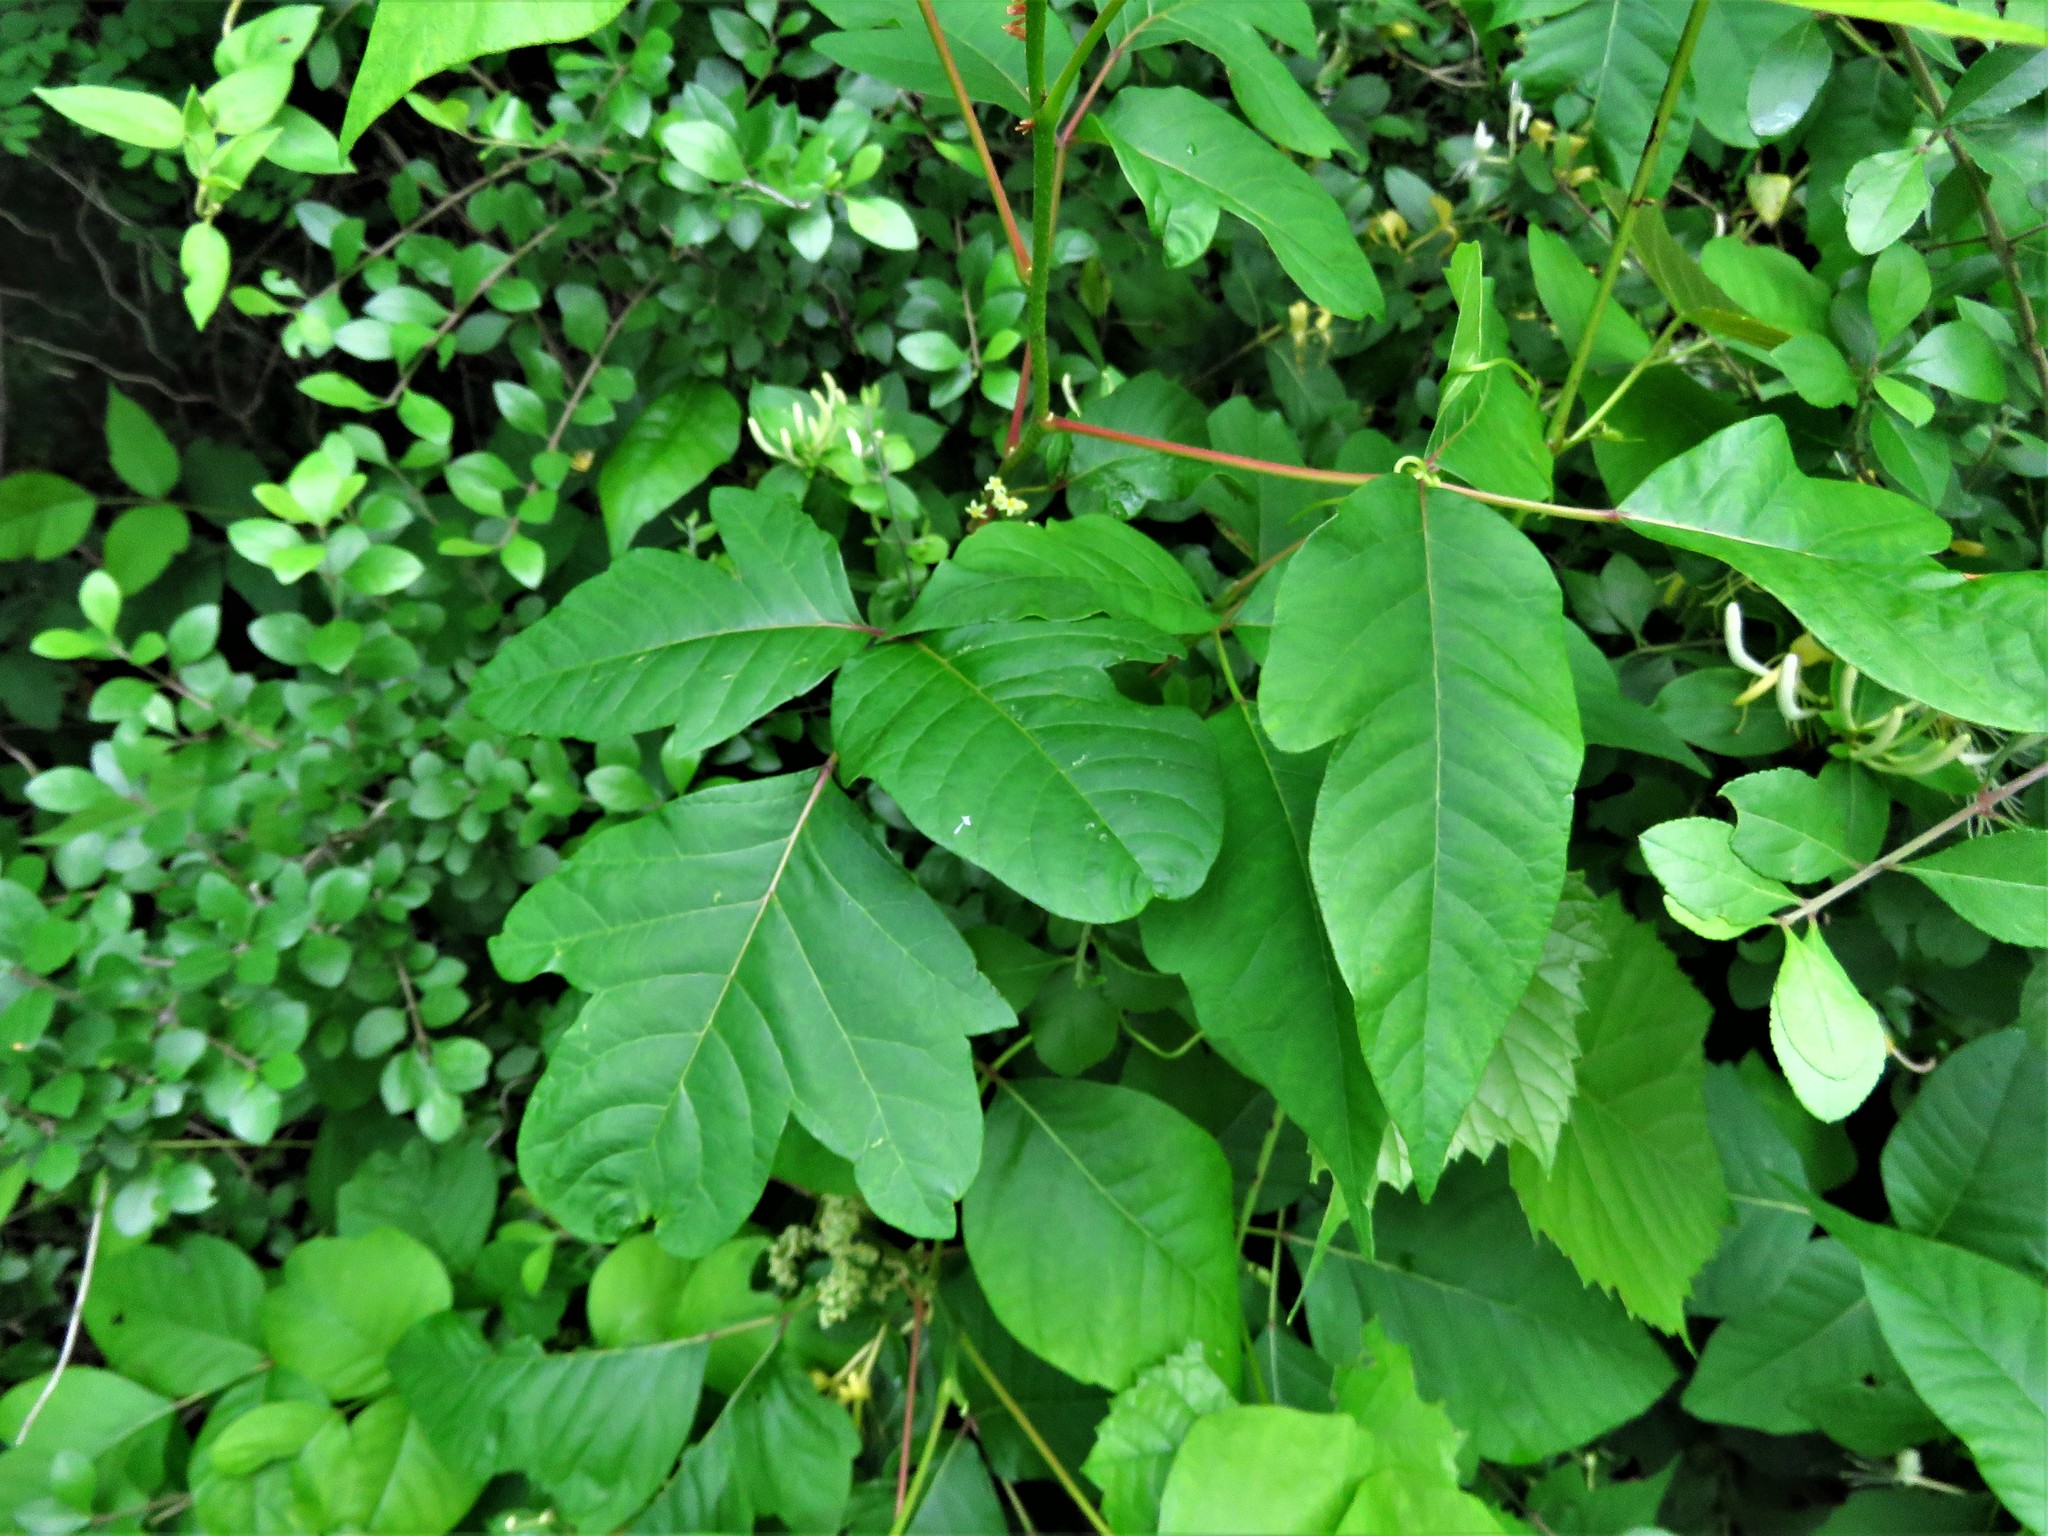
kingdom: Plantae
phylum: Tracheophyta
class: Magnoliopsida
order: Sapindales
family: Anacardiaceae
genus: Toxicodendron
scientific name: Toxicodendron radicans
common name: Poison ivy
